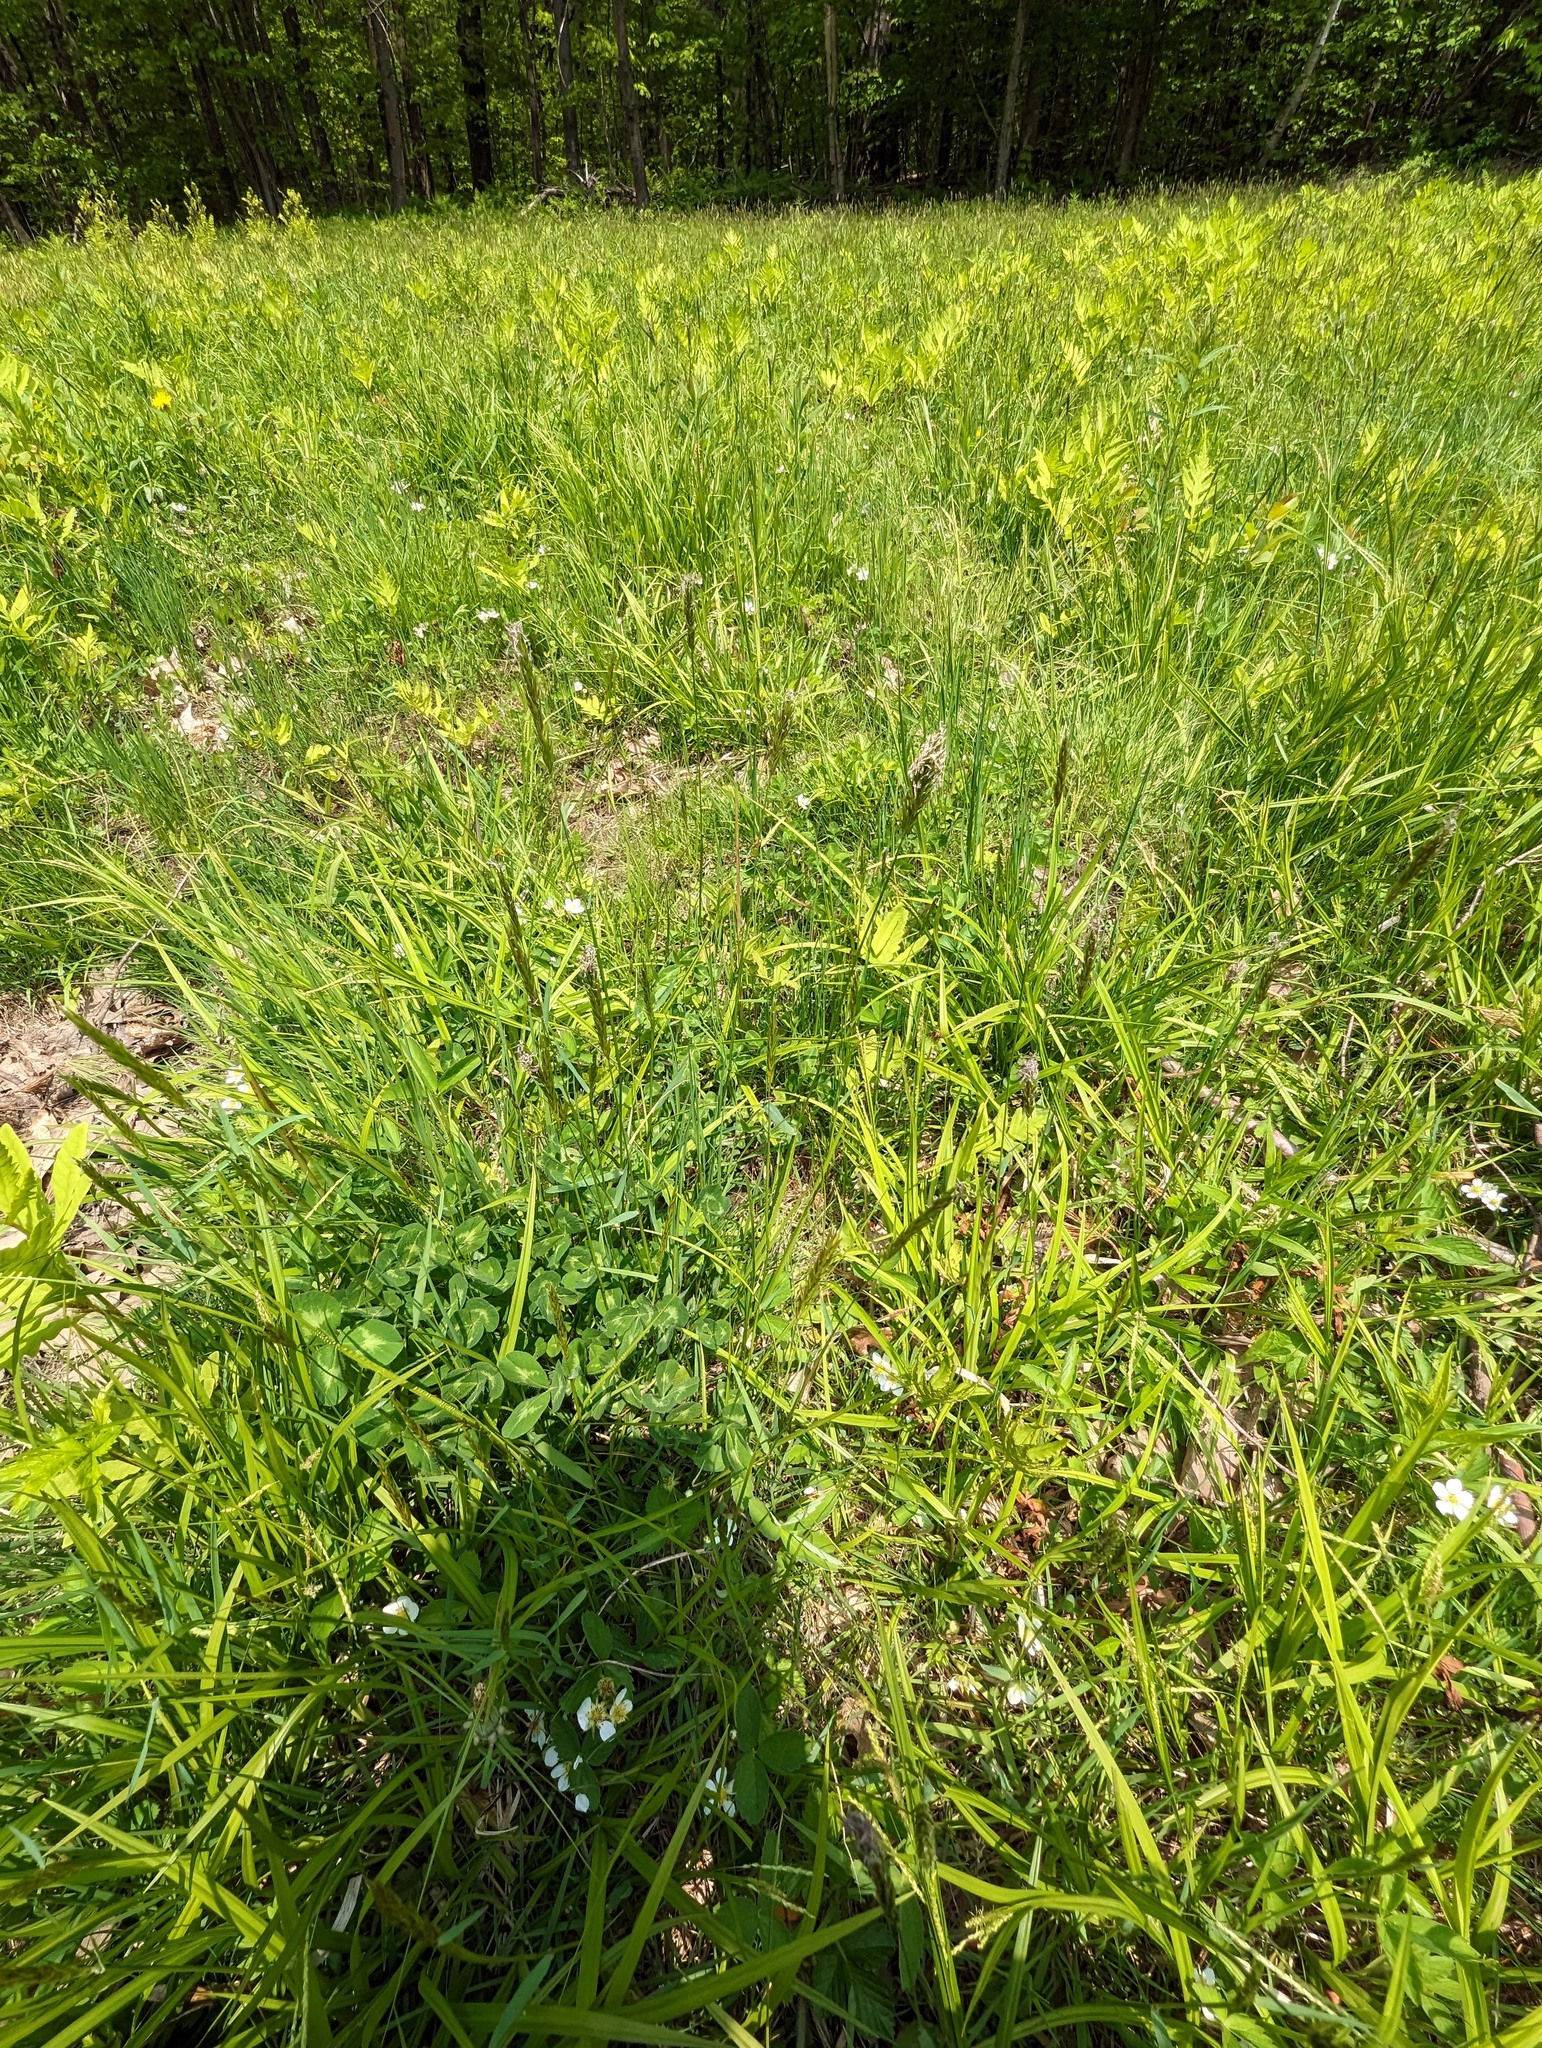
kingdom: Plantae
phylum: Tracheophyta
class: Liliopsida
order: Poales
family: Poaceae
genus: Anthoxanthum
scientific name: Anthoxanthum odoratum
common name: Sweet vernalgrass
